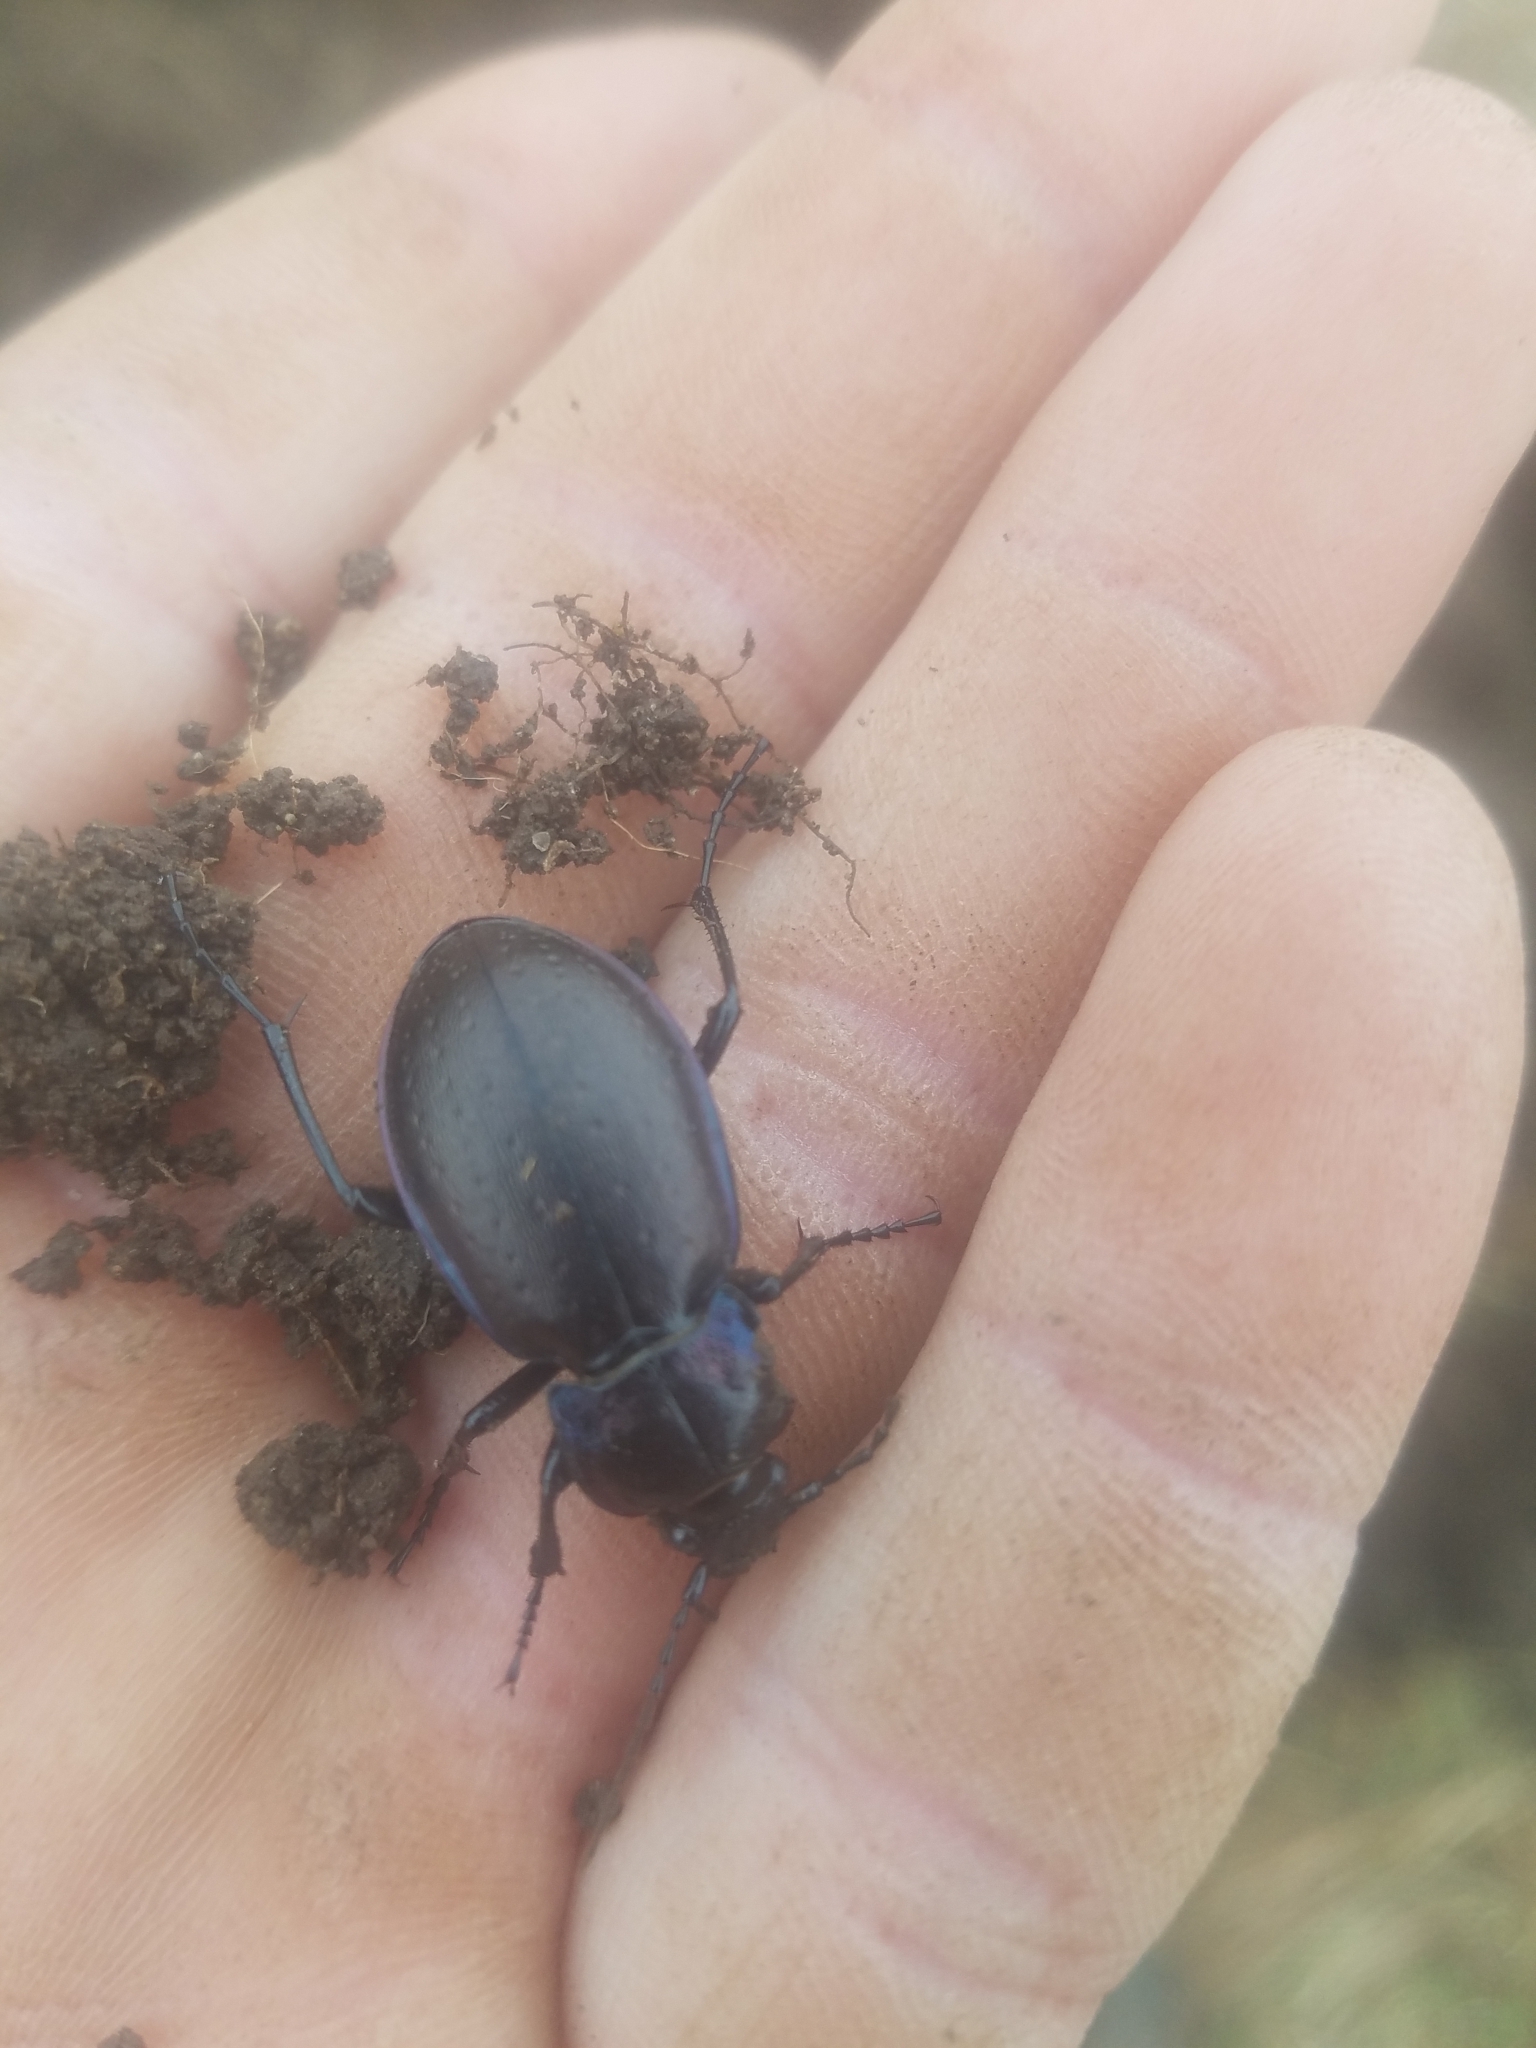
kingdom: Animalia
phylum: Arthropoda
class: Insecta
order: Coleoptera
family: Carabidae
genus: Carabus
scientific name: Carabus nemoralis
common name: European ground beetle
